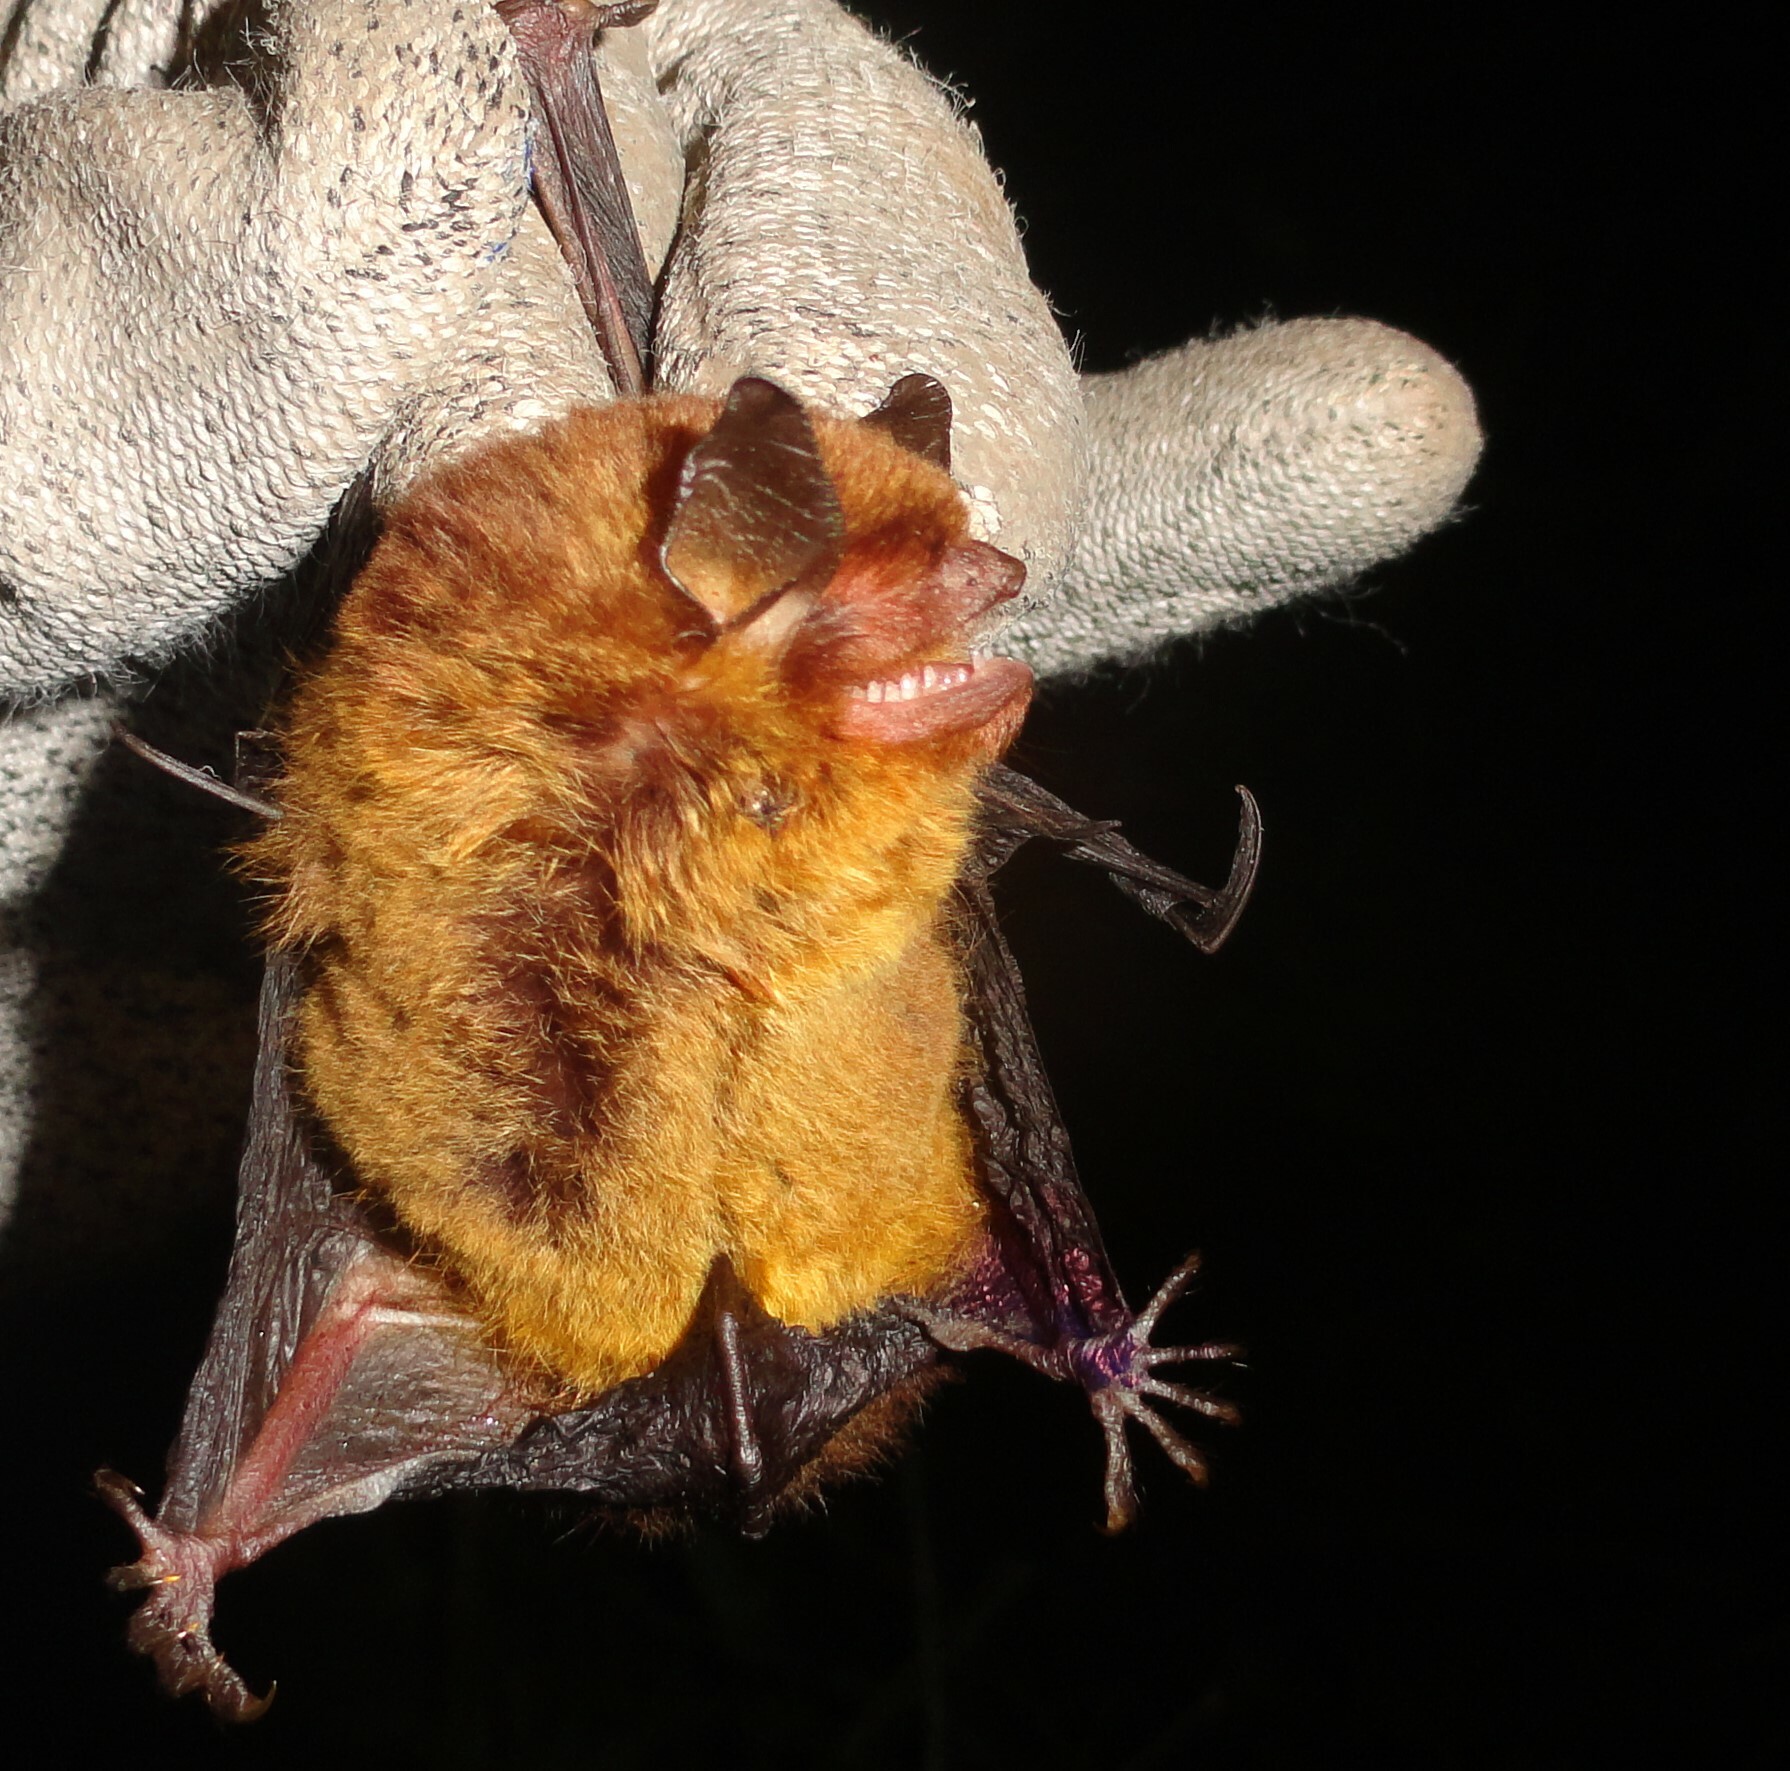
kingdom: Animalia
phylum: Chordata
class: Mammalia
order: Chiroptera
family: Vespertilionidae
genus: Myotis
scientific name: Myotis ruber
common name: Red myotis
